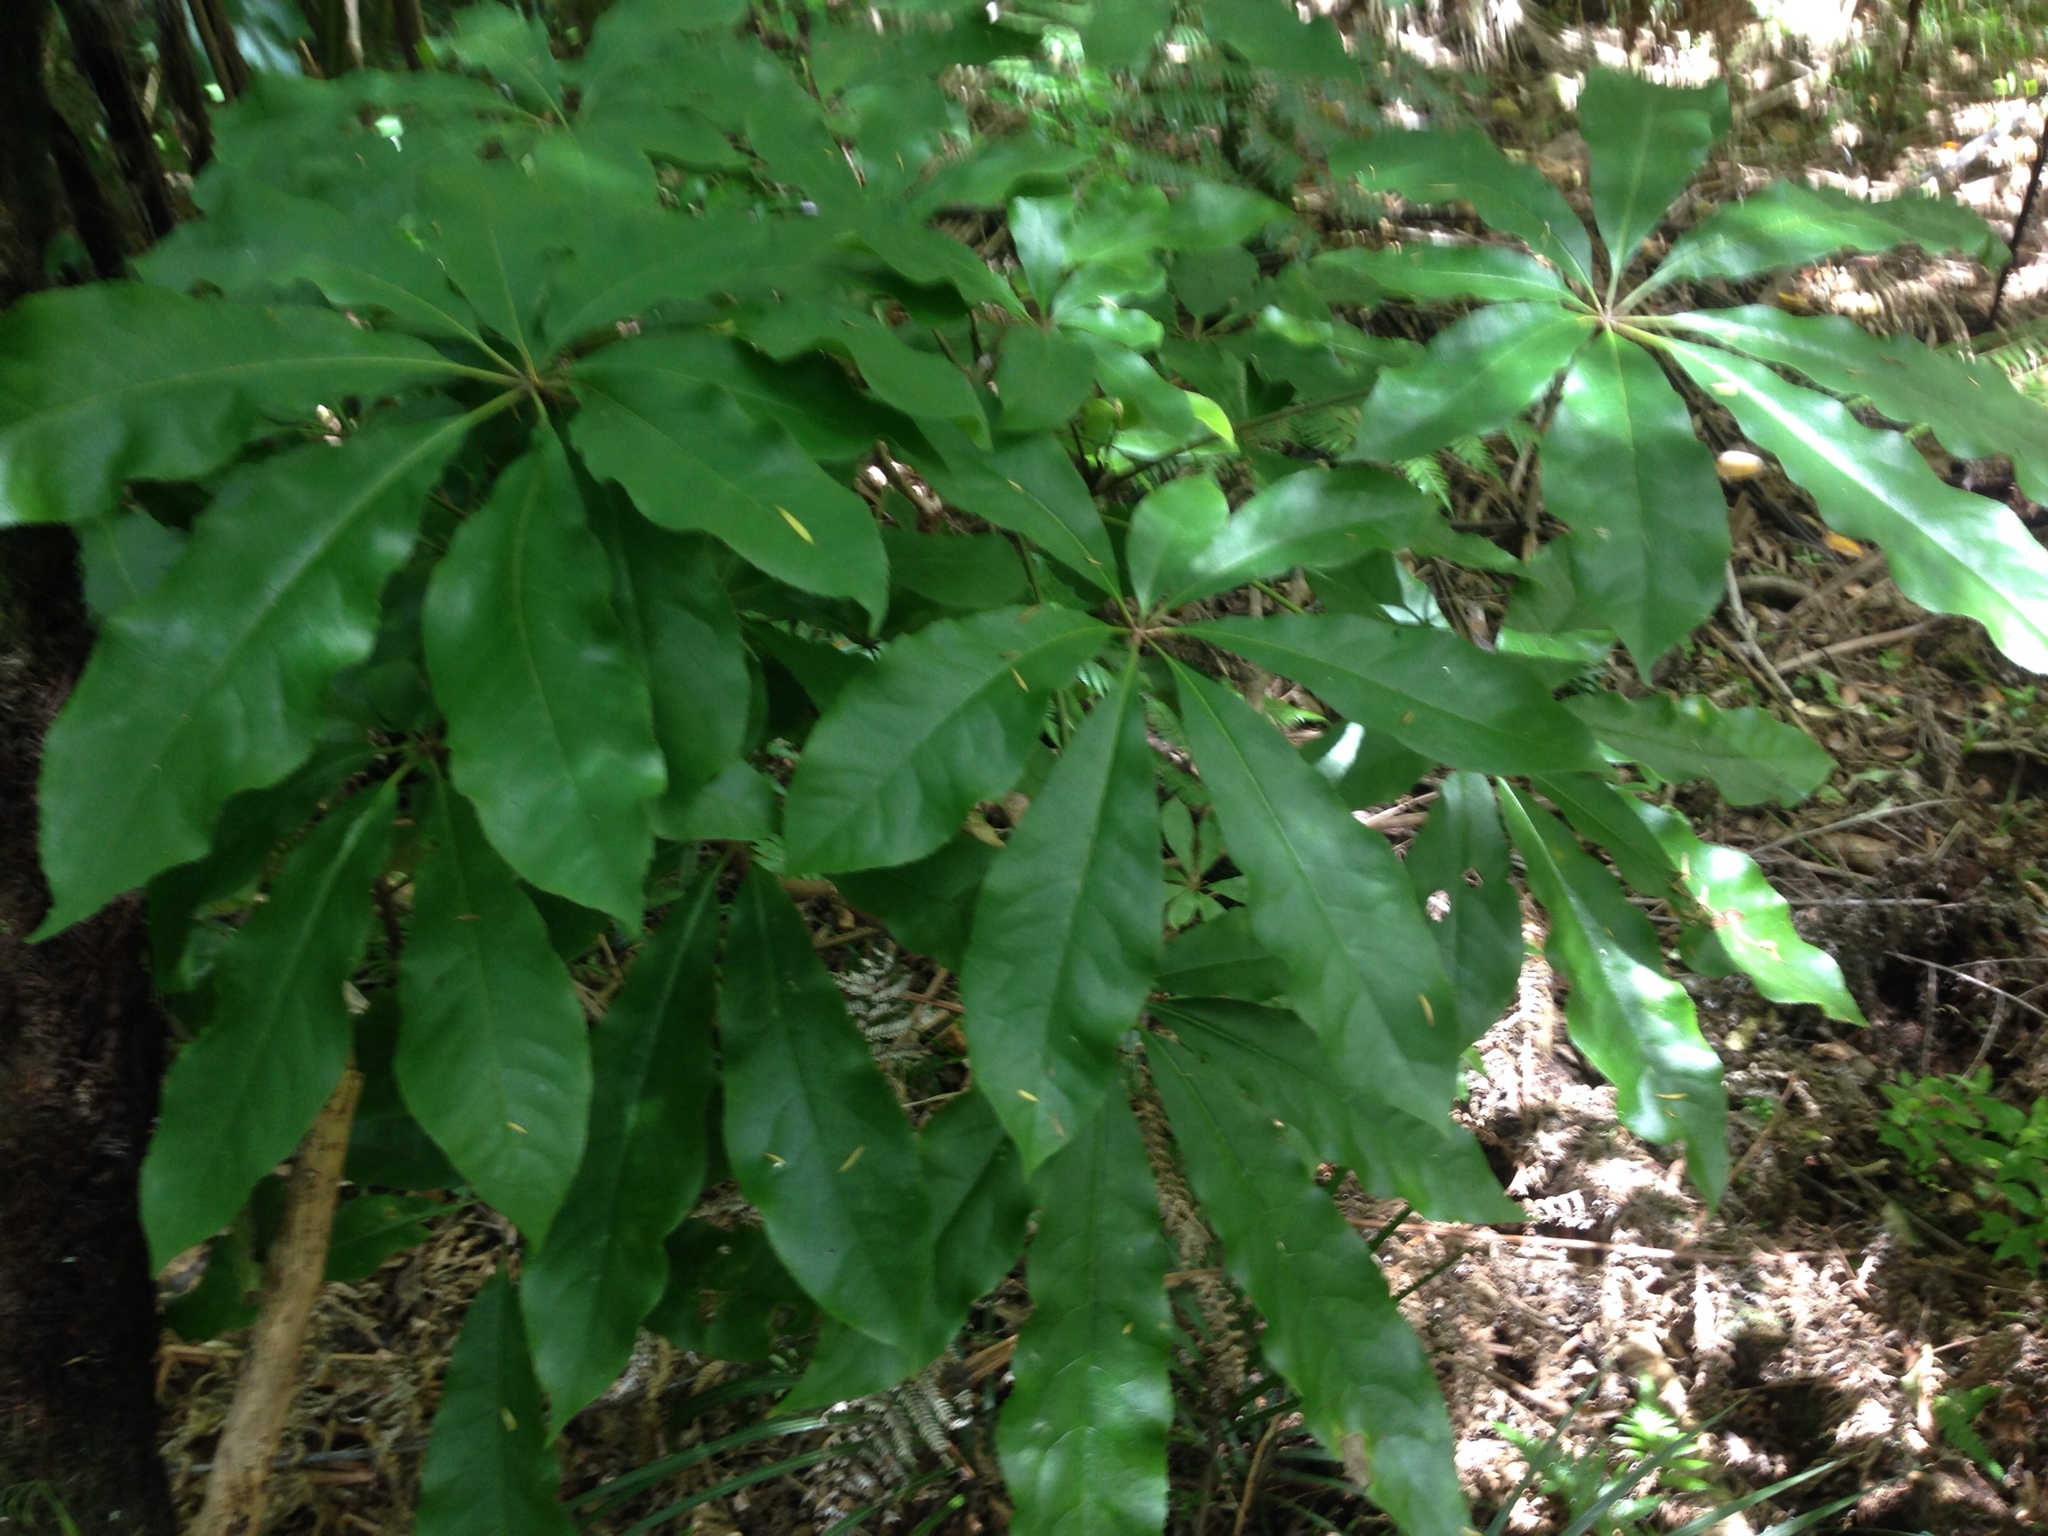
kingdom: Plantae
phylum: Tracheophyta
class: Magnoliopsida
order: Apiales
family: Araliaceae
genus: Schefflera
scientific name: Schefflera digitata
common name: Pate
